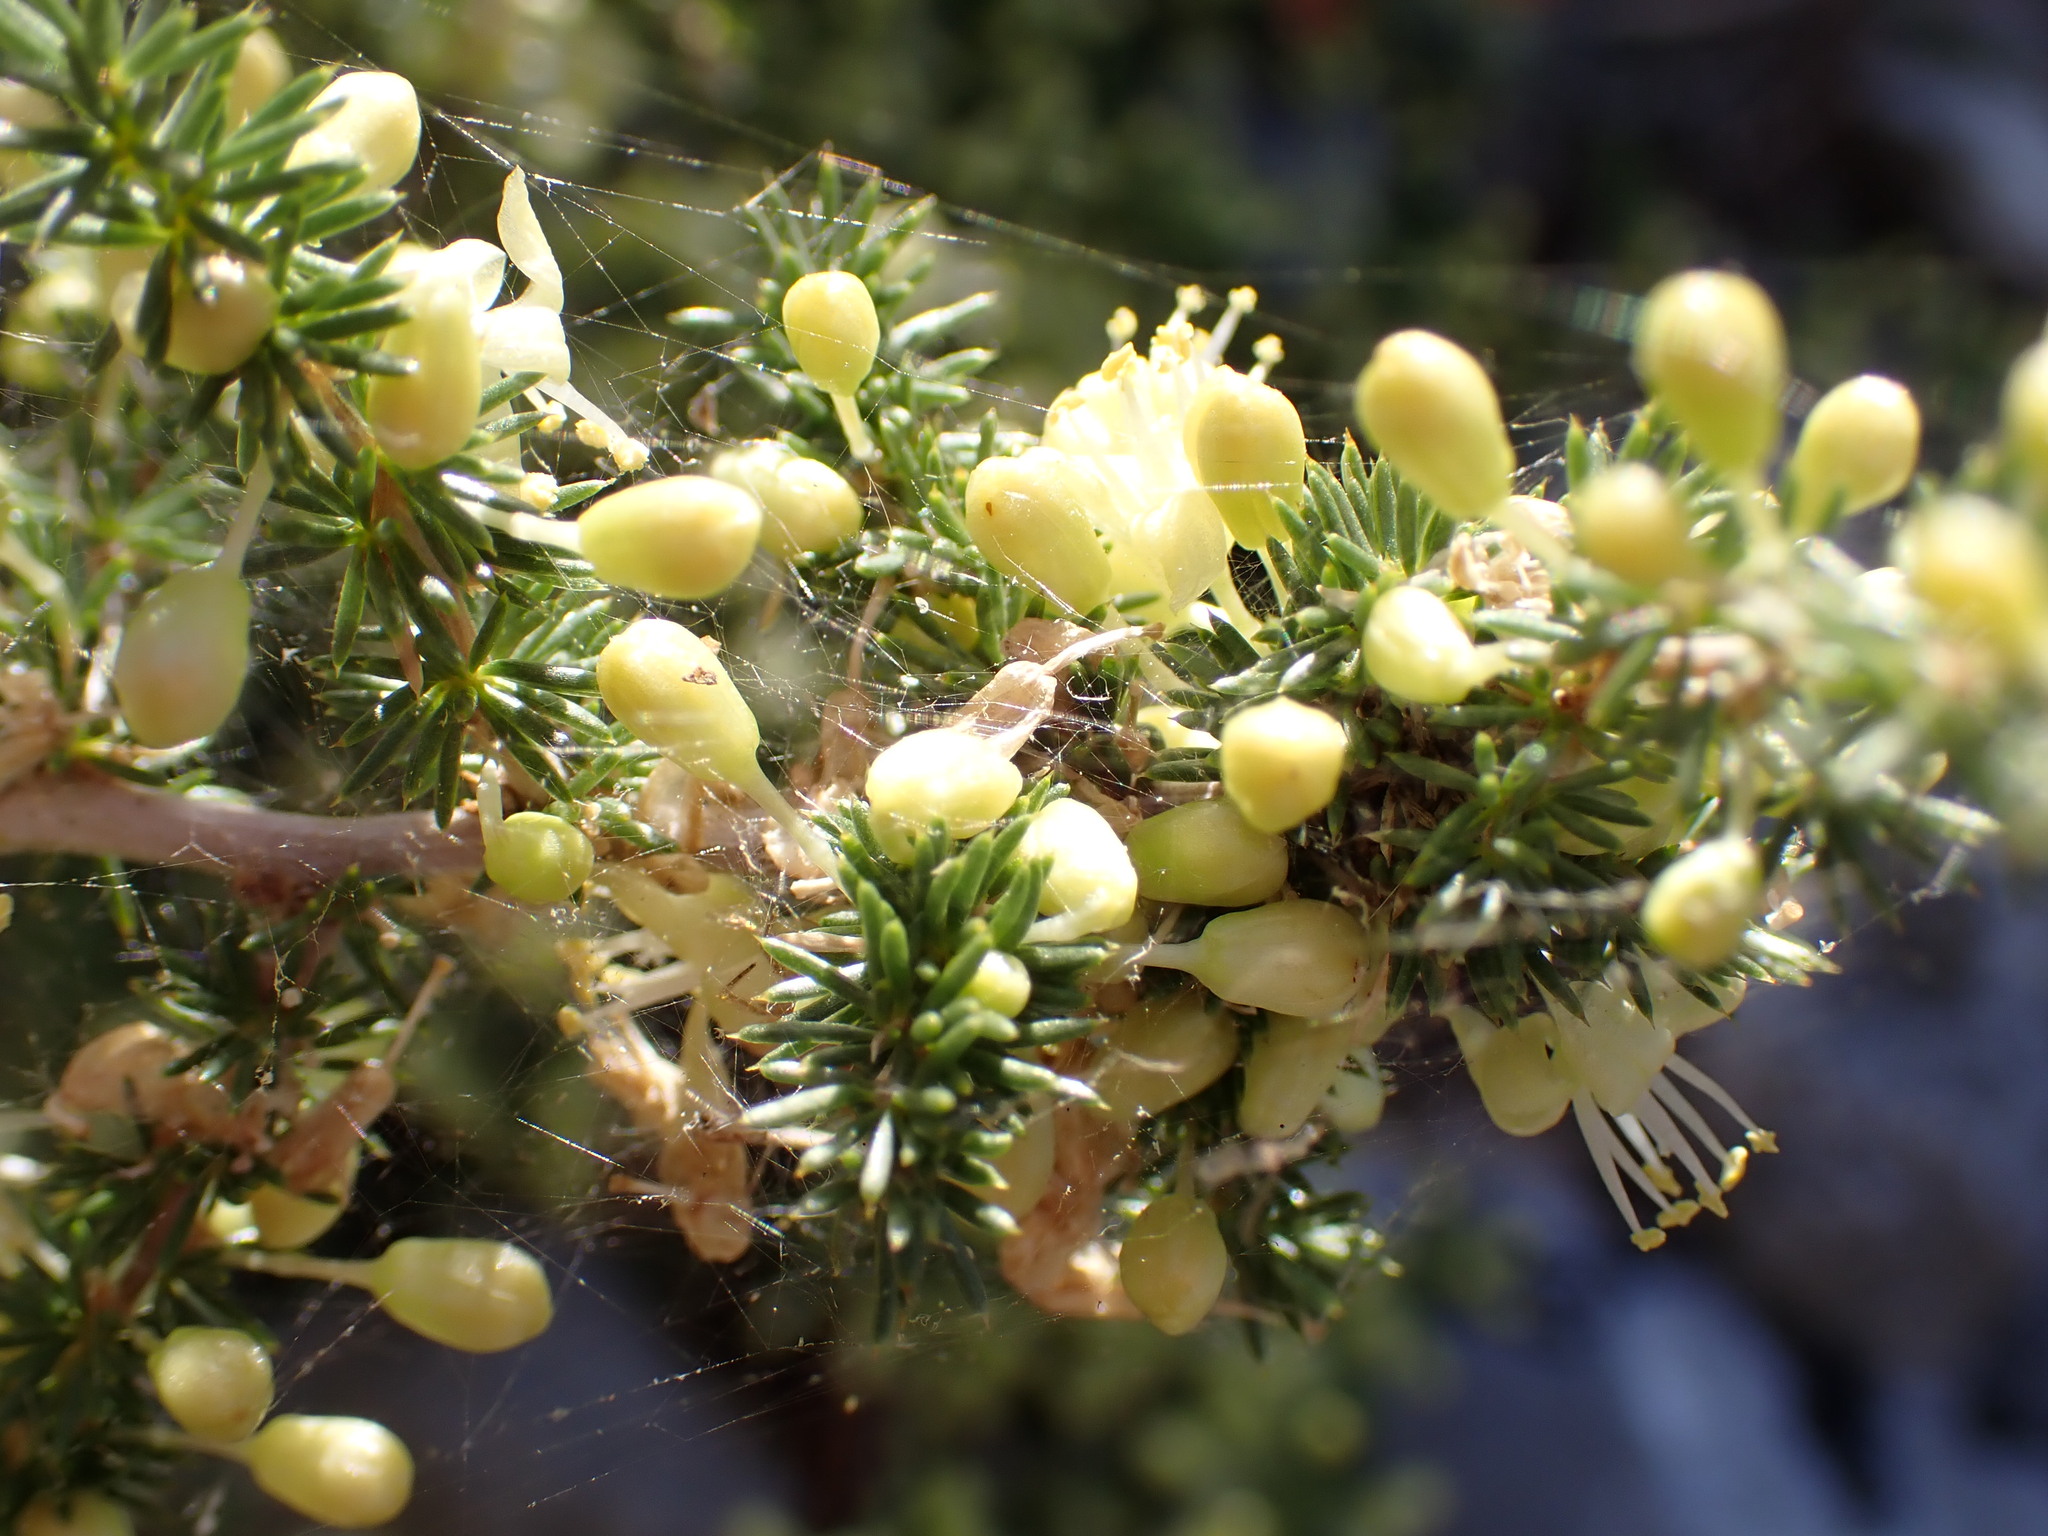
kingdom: Plantae
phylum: Tracheophyta
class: Liliopsida
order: Asparagales
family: Asparagaceae
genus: Asparagus
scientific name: Asparagus acutifolius
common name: Wild asparagus
